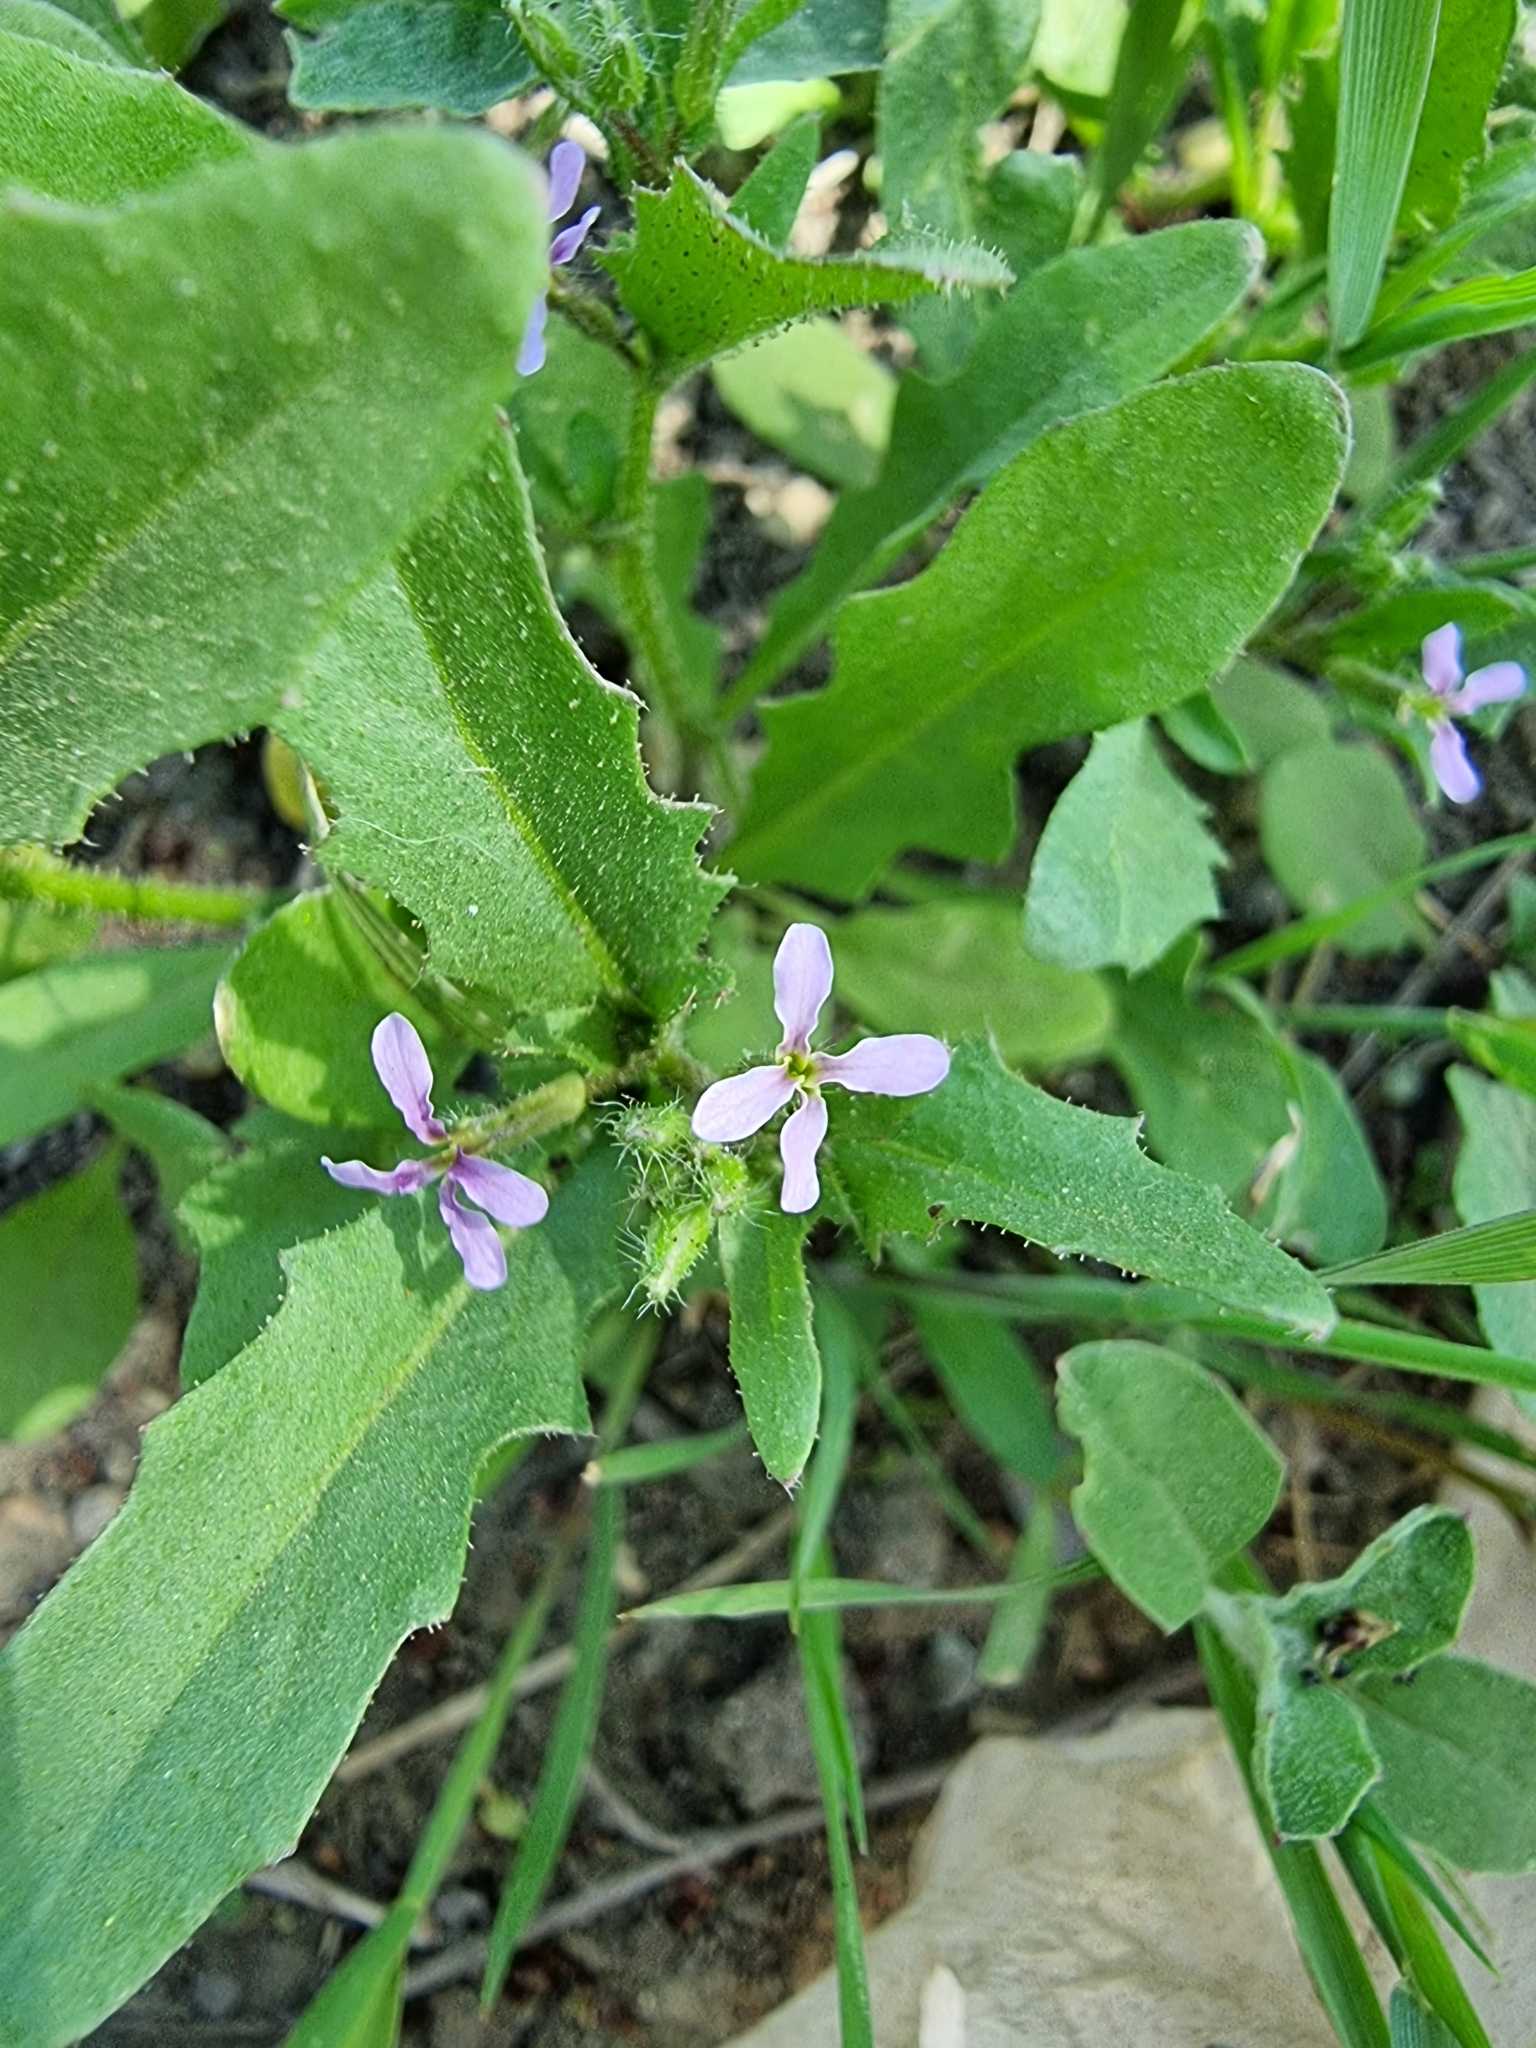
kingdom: Plantae
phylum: Tracheophyta
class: Magnoliopsida
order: Brassicales
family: Brassicaceae
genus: Chorispora
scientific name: Chorispora tenella
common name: Crossflower
